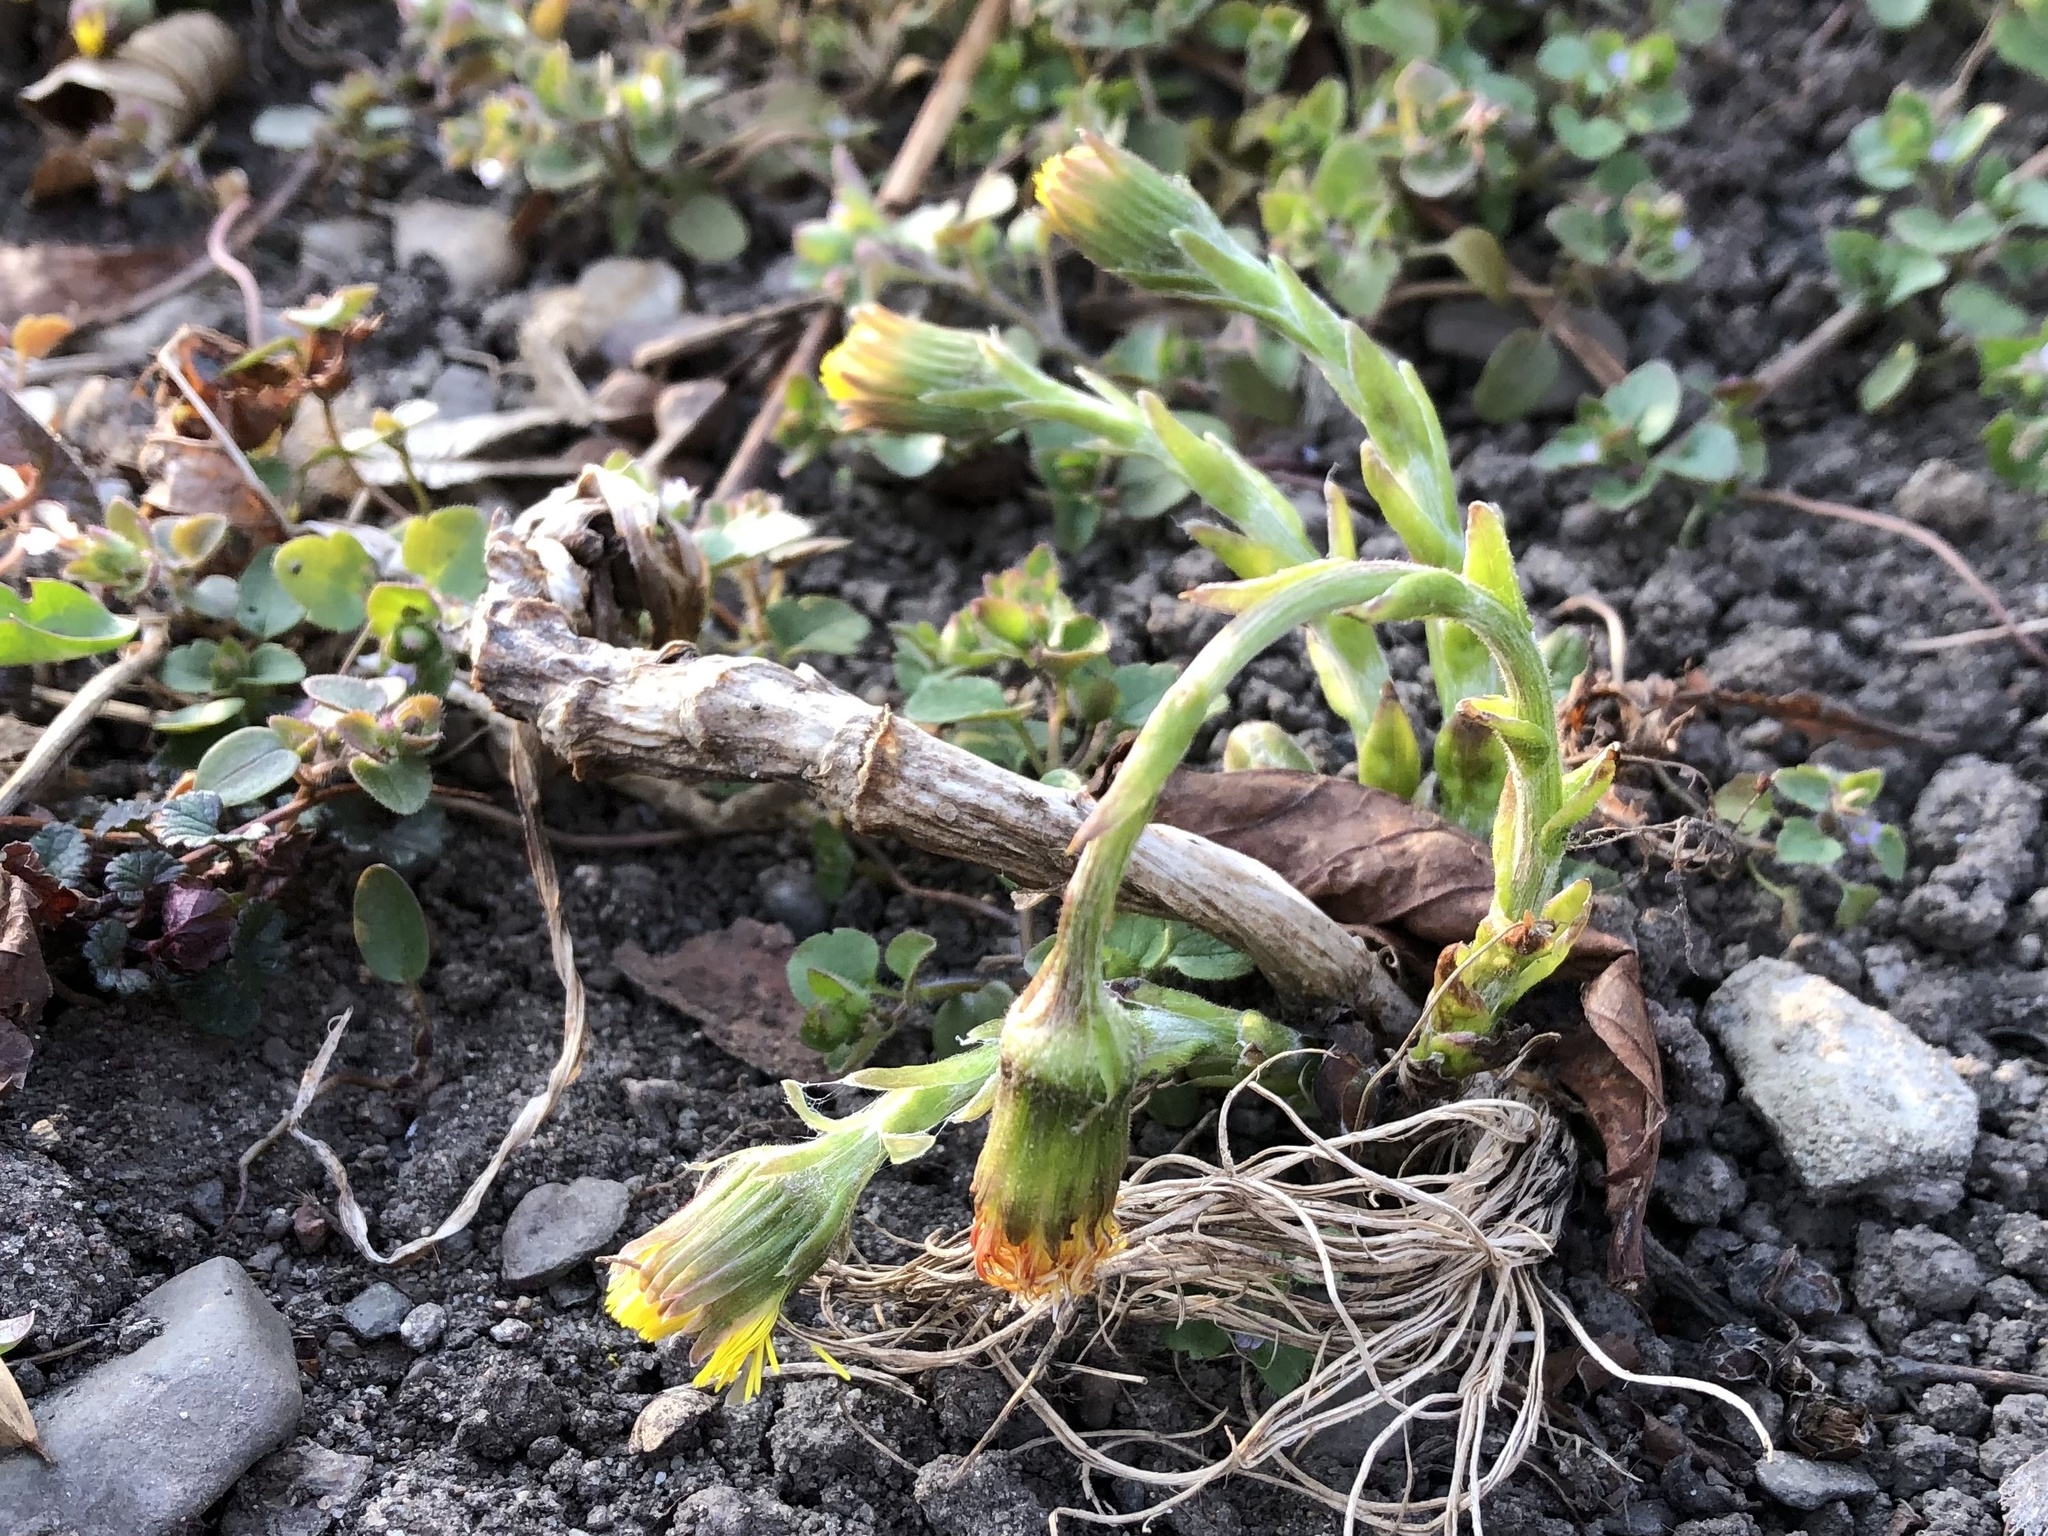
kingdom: Plantae
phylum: Tracheophyta
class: Magnoliopsida
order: Asterales
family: Asteraceae
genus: Tussilago
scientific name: Tussilago farfara
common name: Coltsfoot
